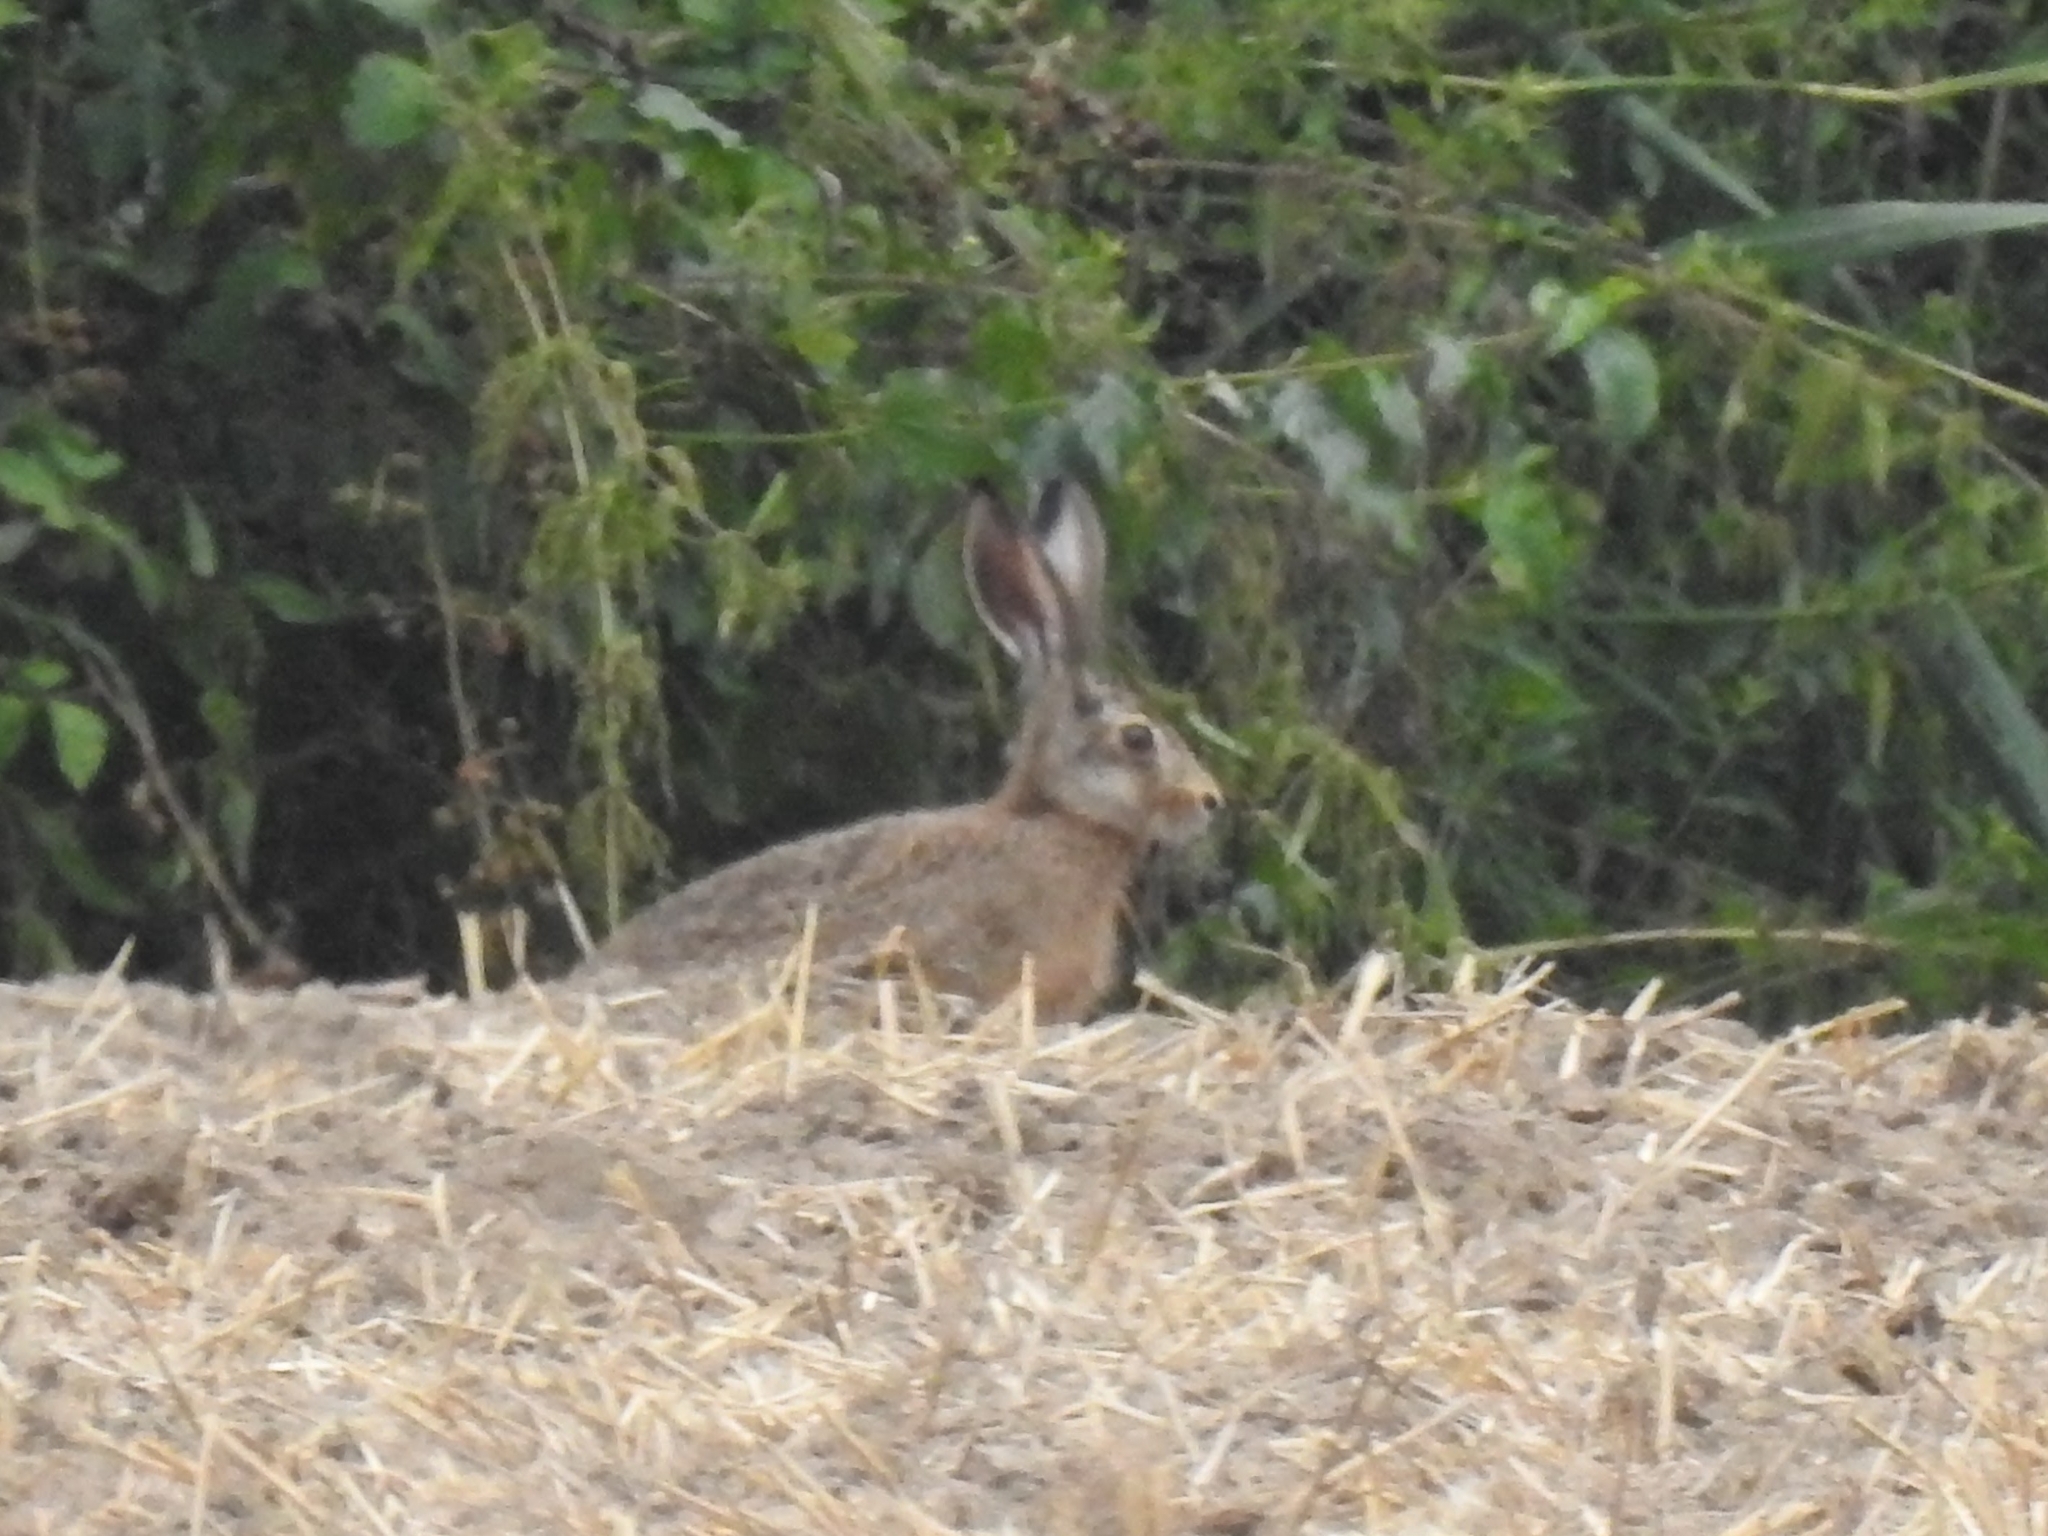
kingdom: Animalia
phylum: Chordata
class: Mammalia
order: Lagomorpha
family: Leporidae
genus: Lepus
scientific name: Lepus europaeus
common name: European hare
